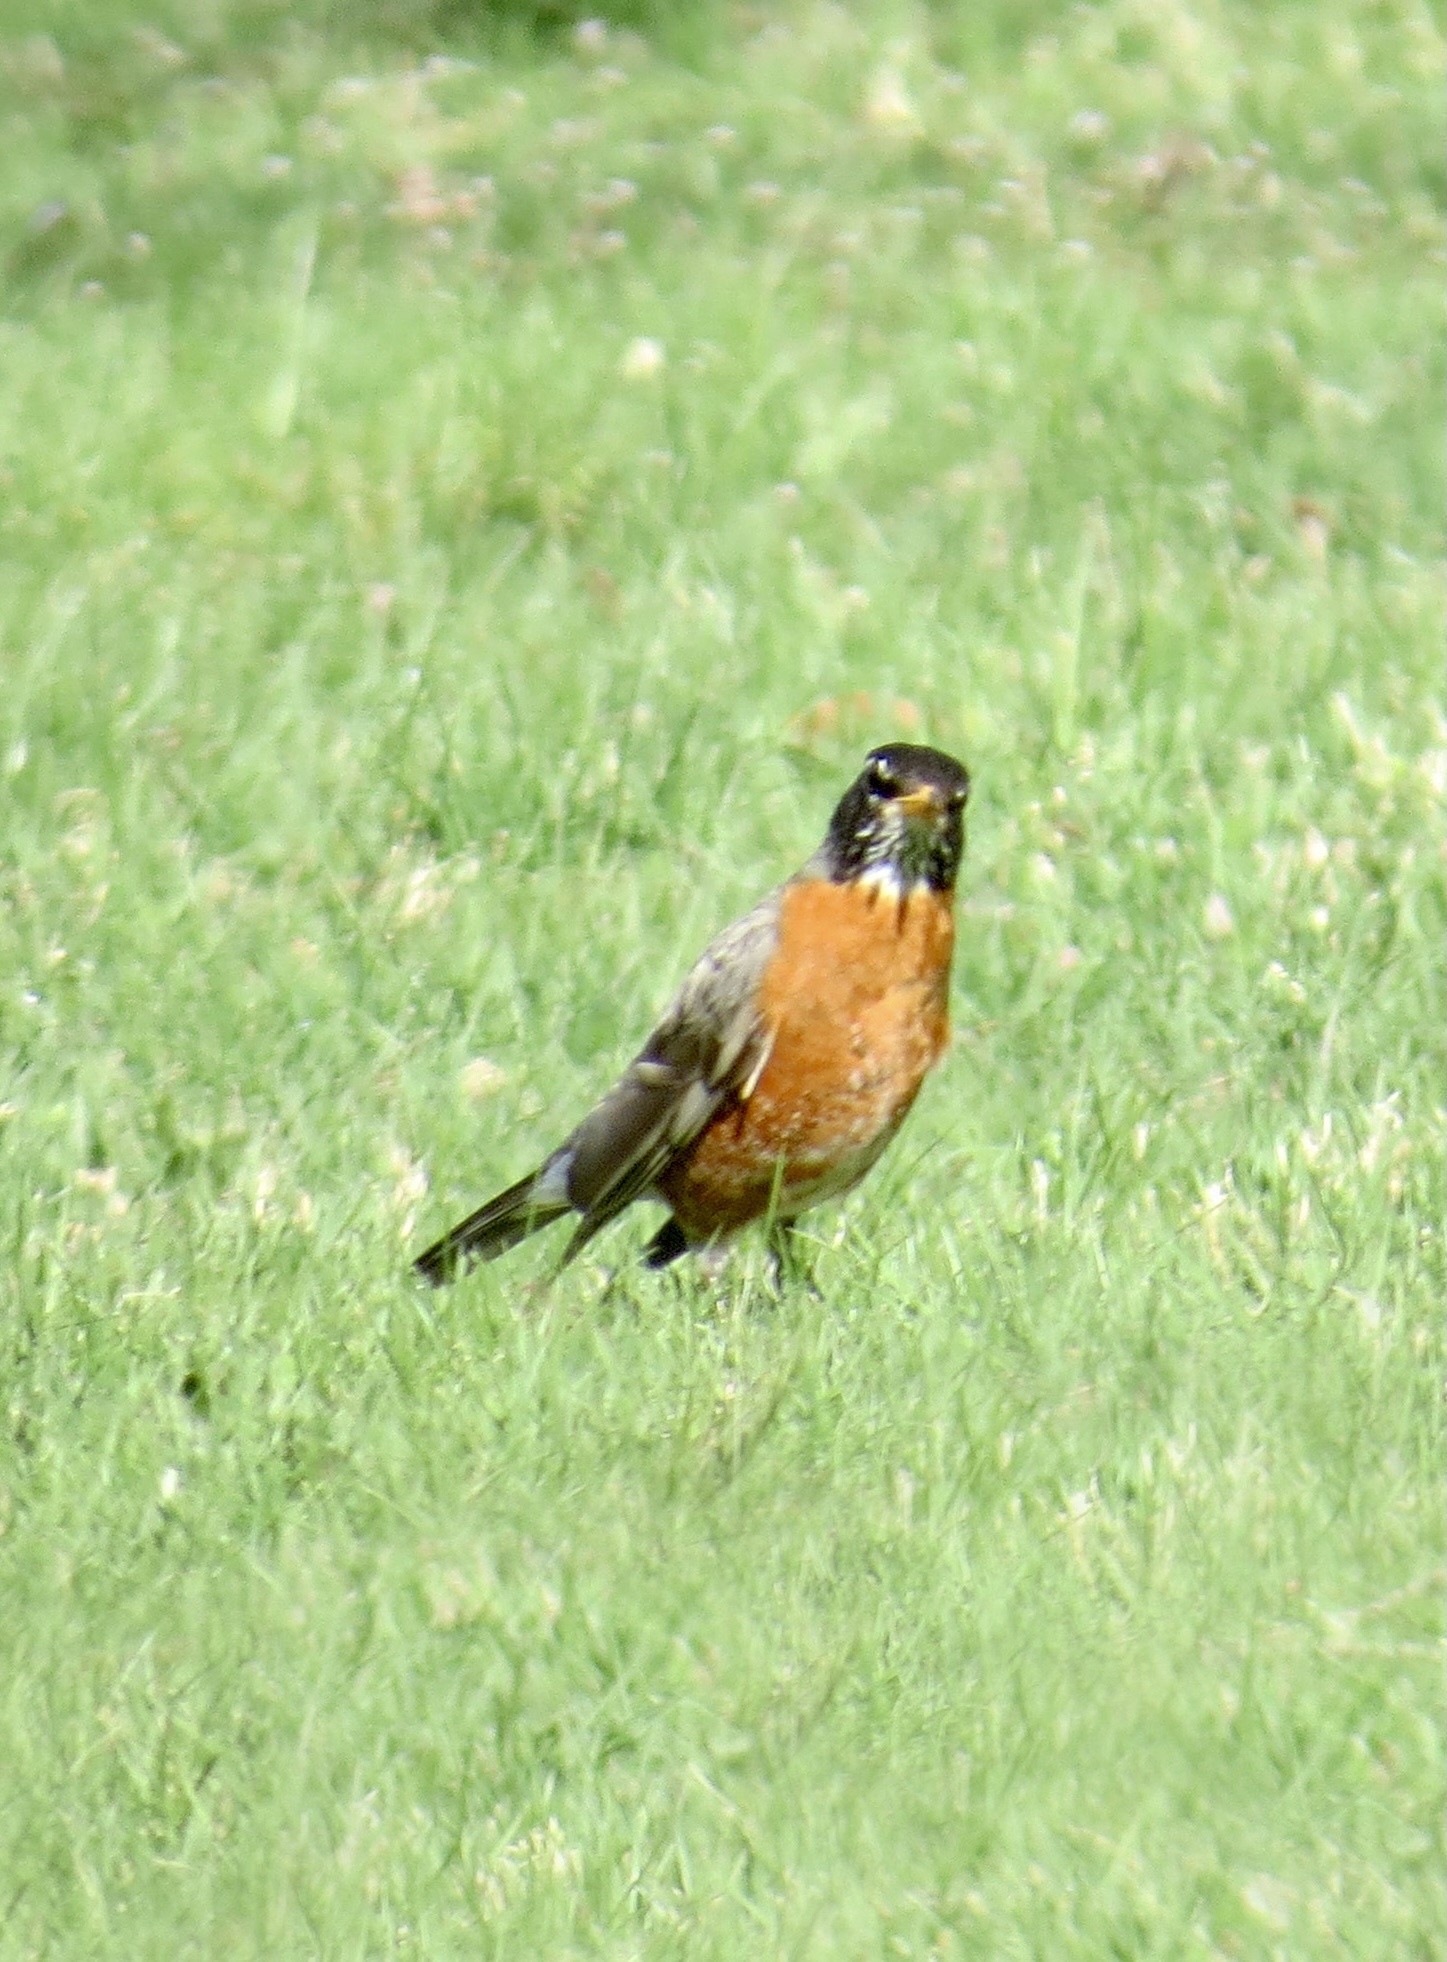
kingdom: Animalia
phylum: Chordata
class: Aves
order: Passeriformes
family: Turdidae
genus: Turdus
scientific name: Turdus migratorius
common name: American robin
